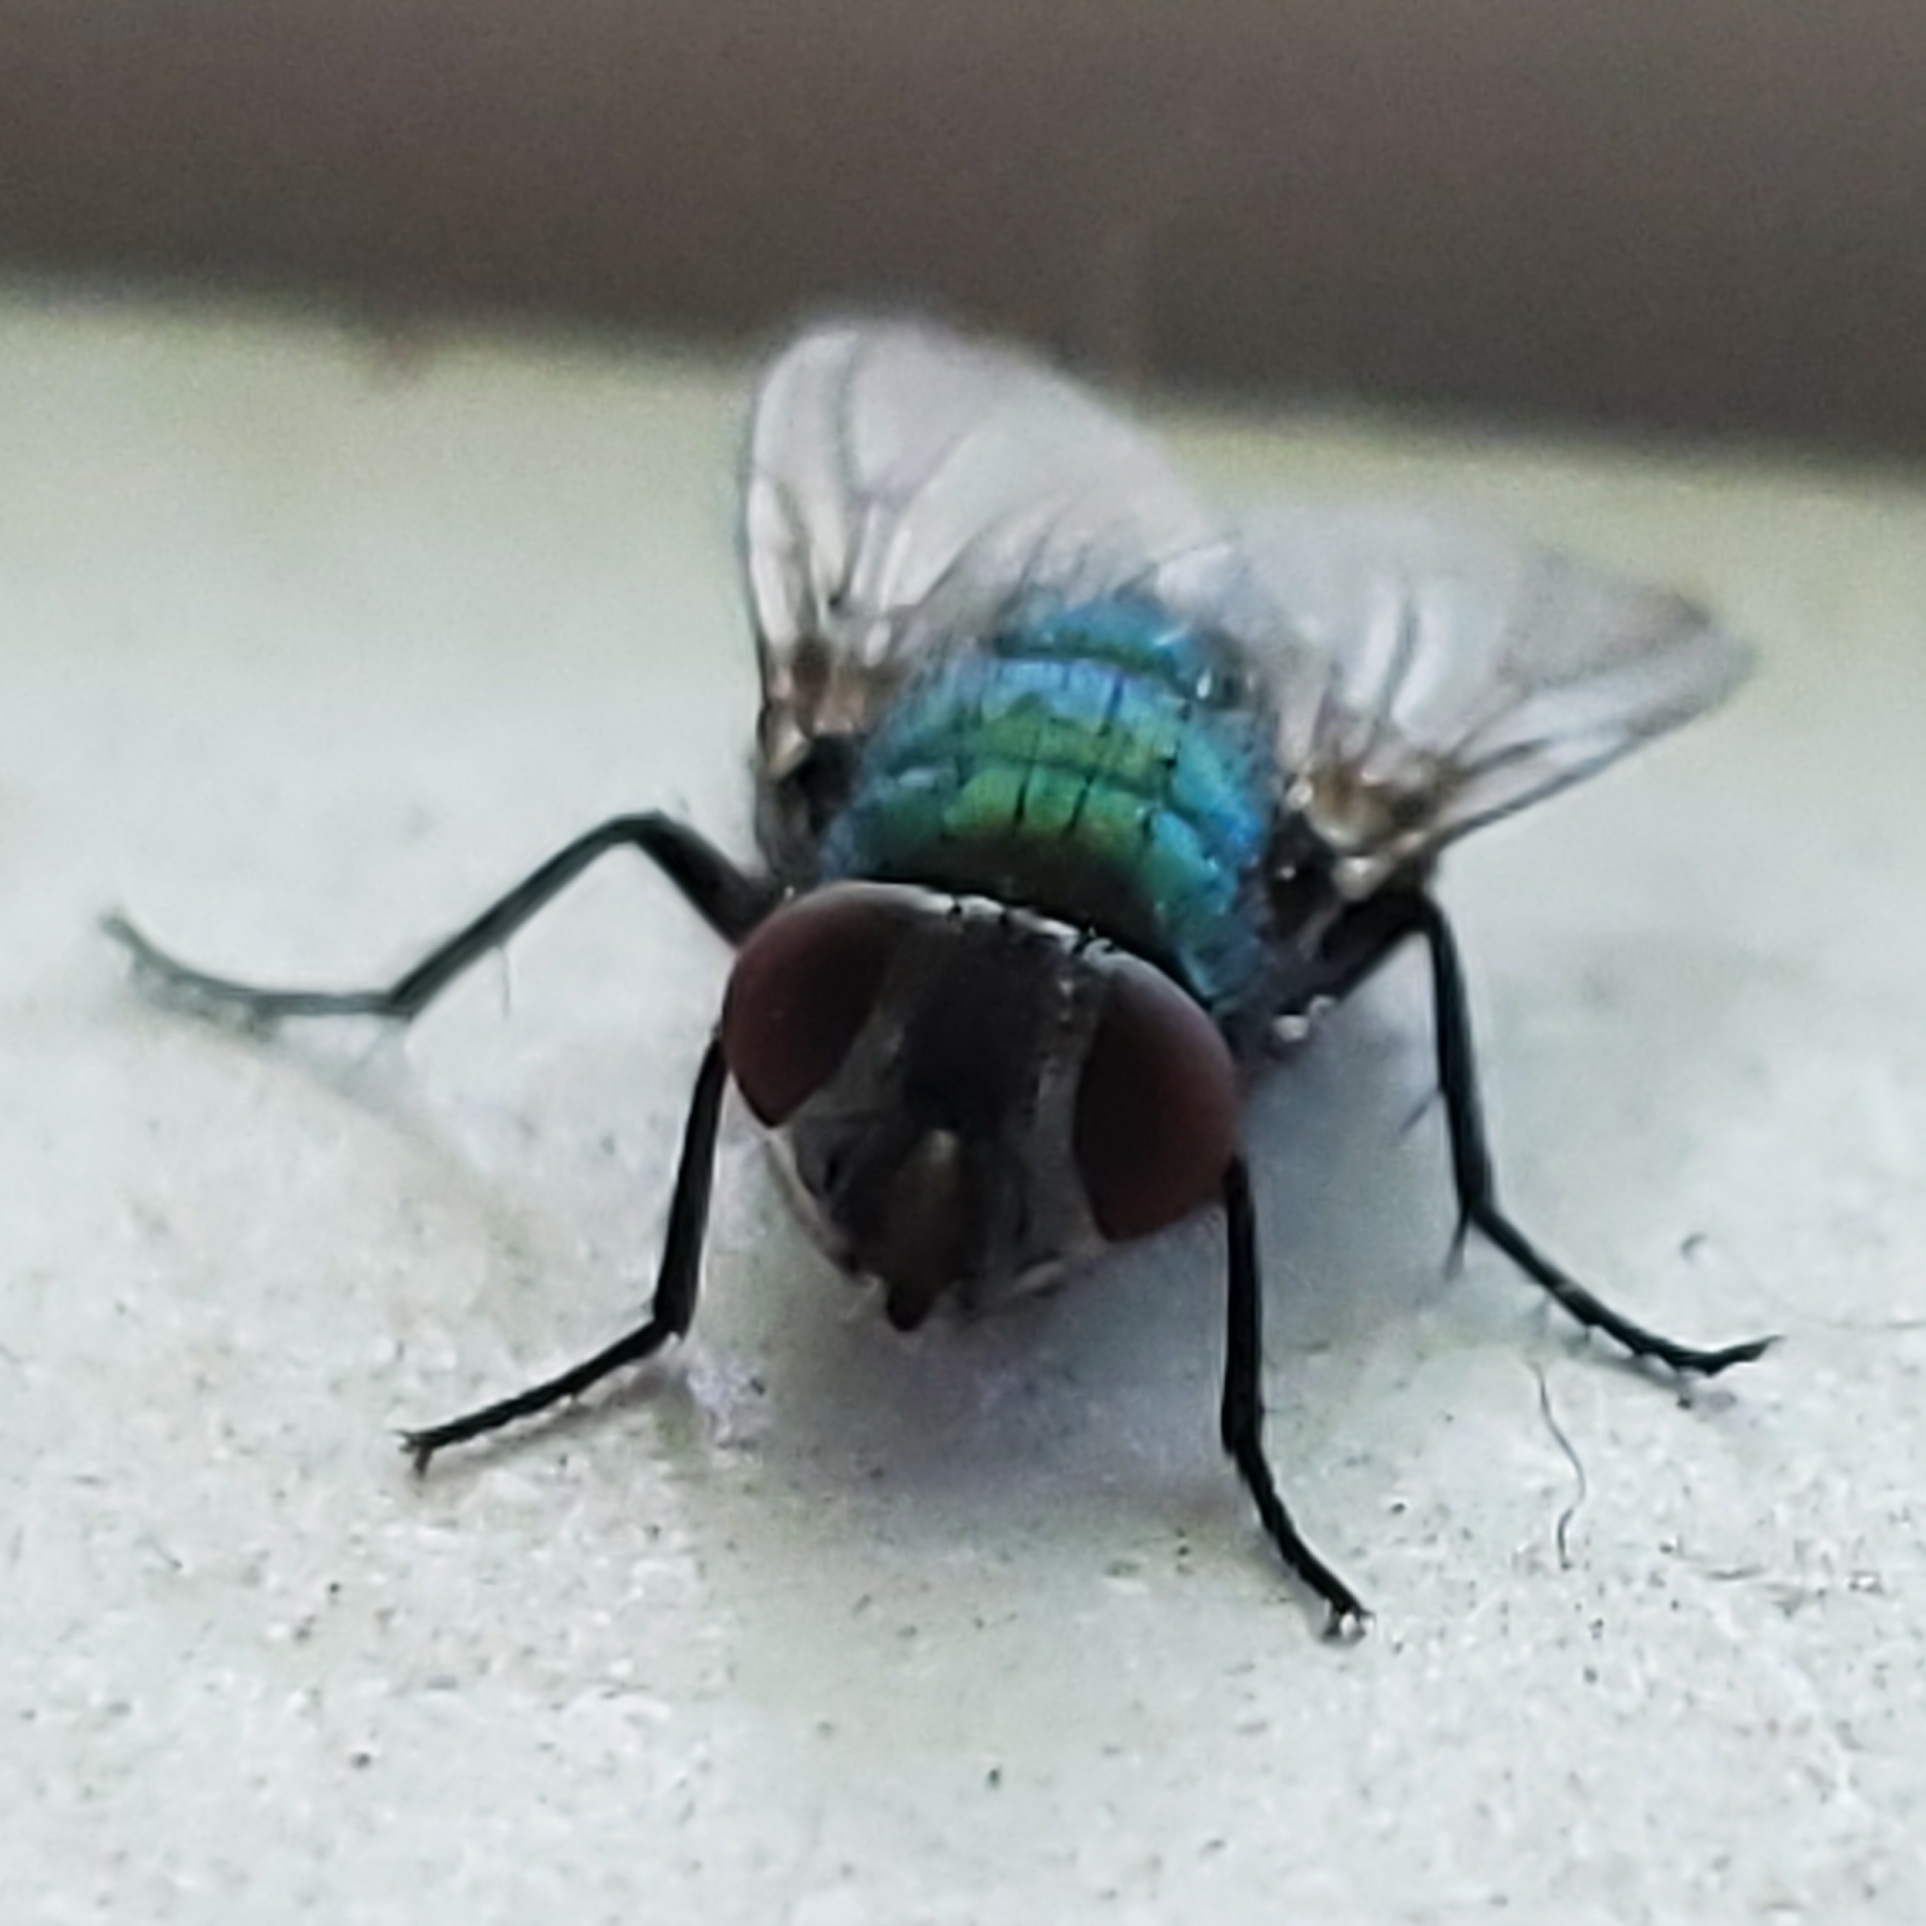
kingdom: Animalia
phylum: Arthropoda
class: Insecta
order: Diptera
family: Calliphoridae
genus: Lucilia
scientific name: Lucilia sericata
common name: Blow fly
